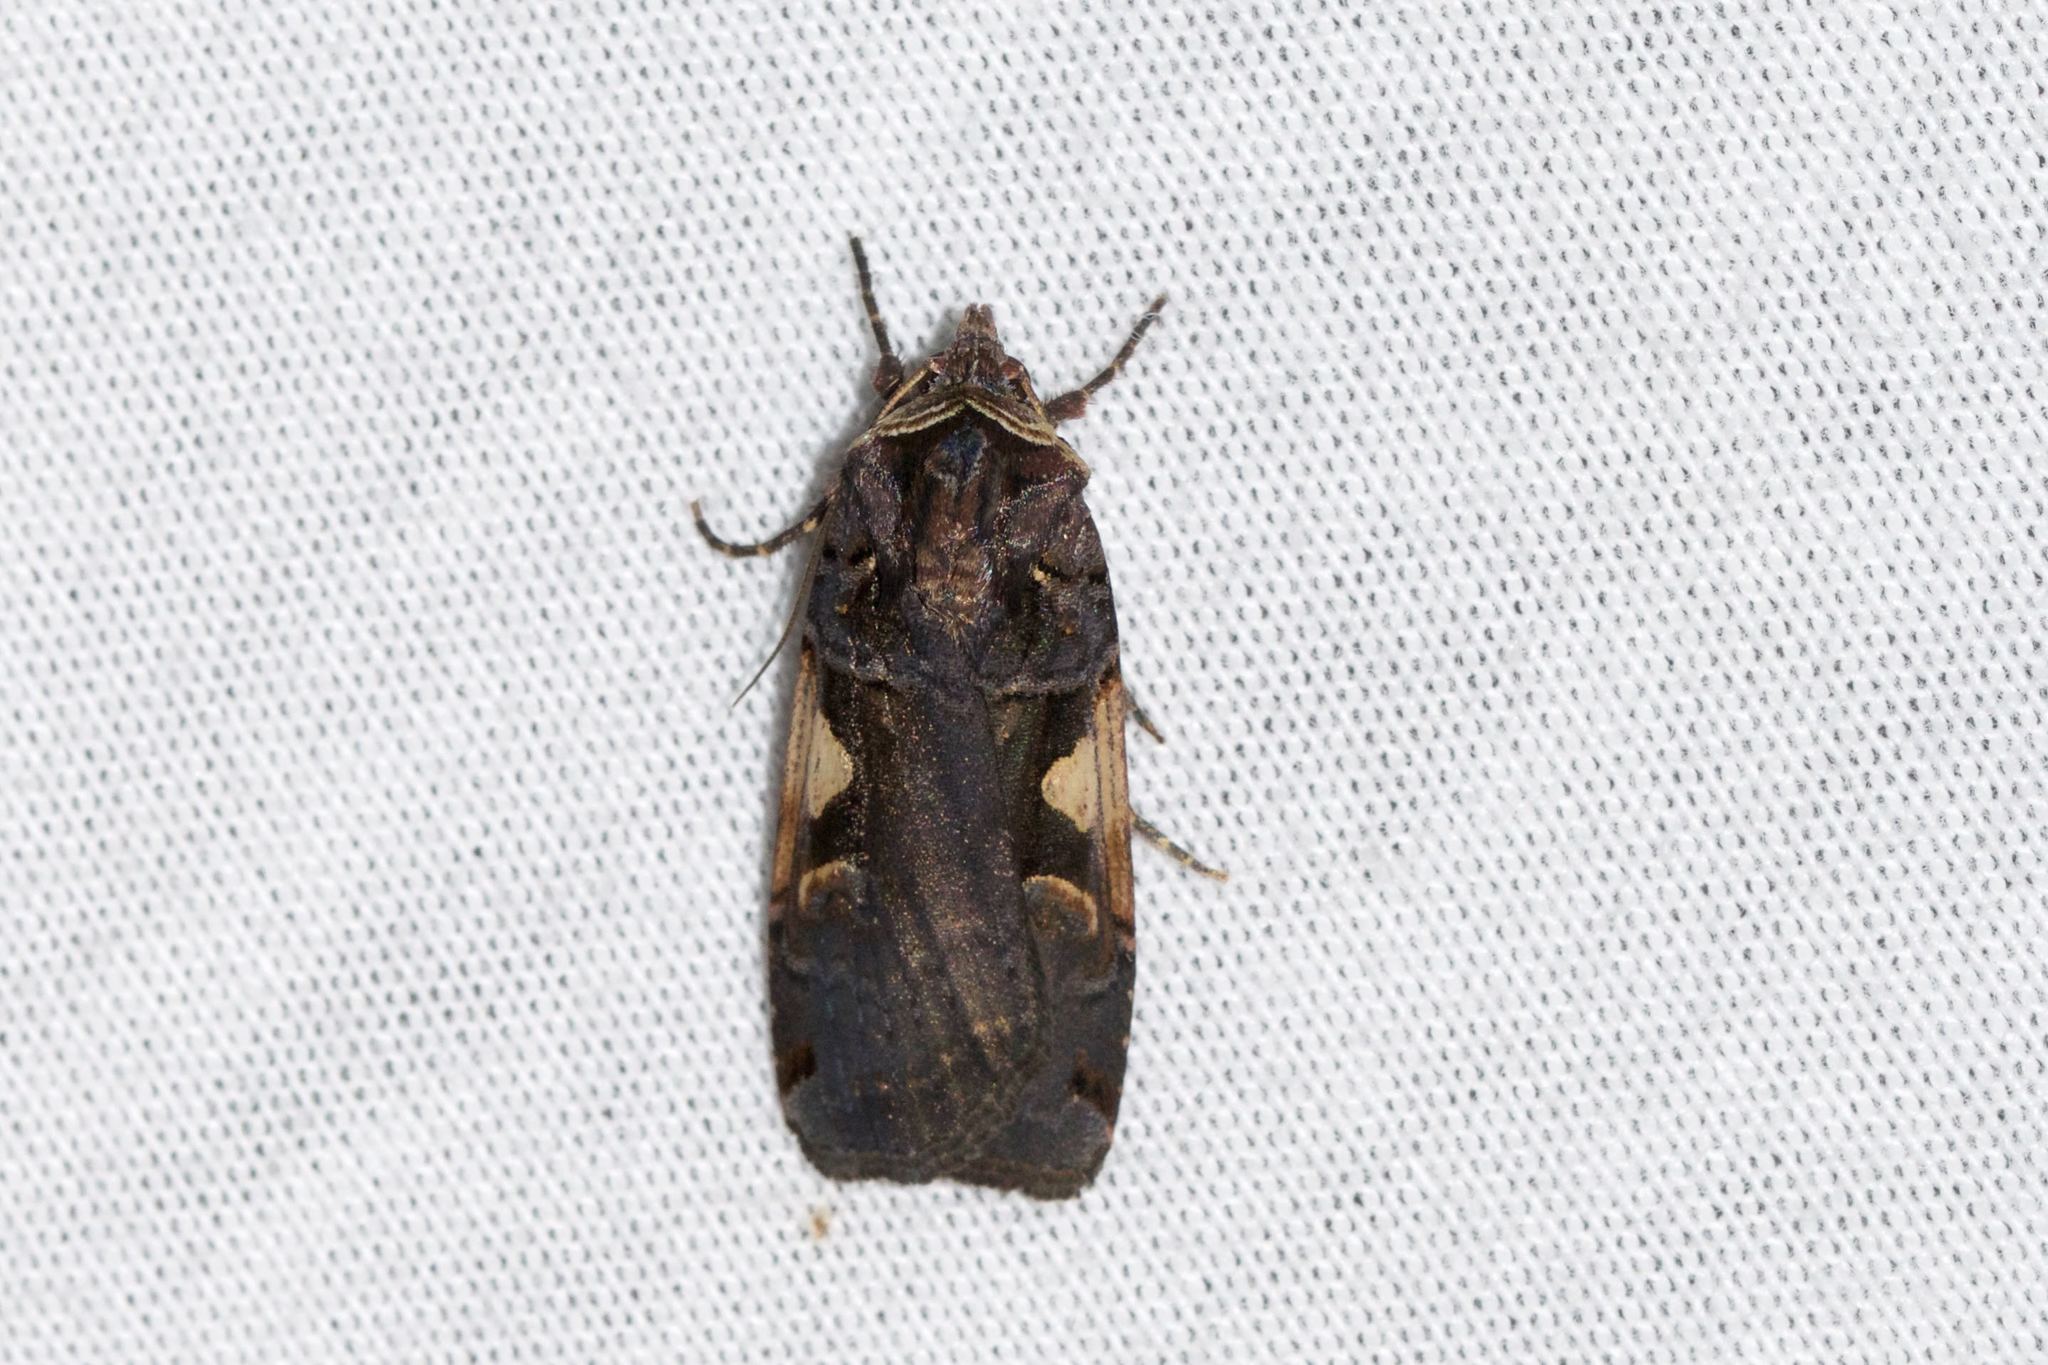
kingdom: Animalia
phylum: Arthropoda
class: Insecta
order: Lepidoptera
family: Noctuidae
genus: Xestia
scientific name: Xestia c-nigrum
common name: Setaceous hebrew character
